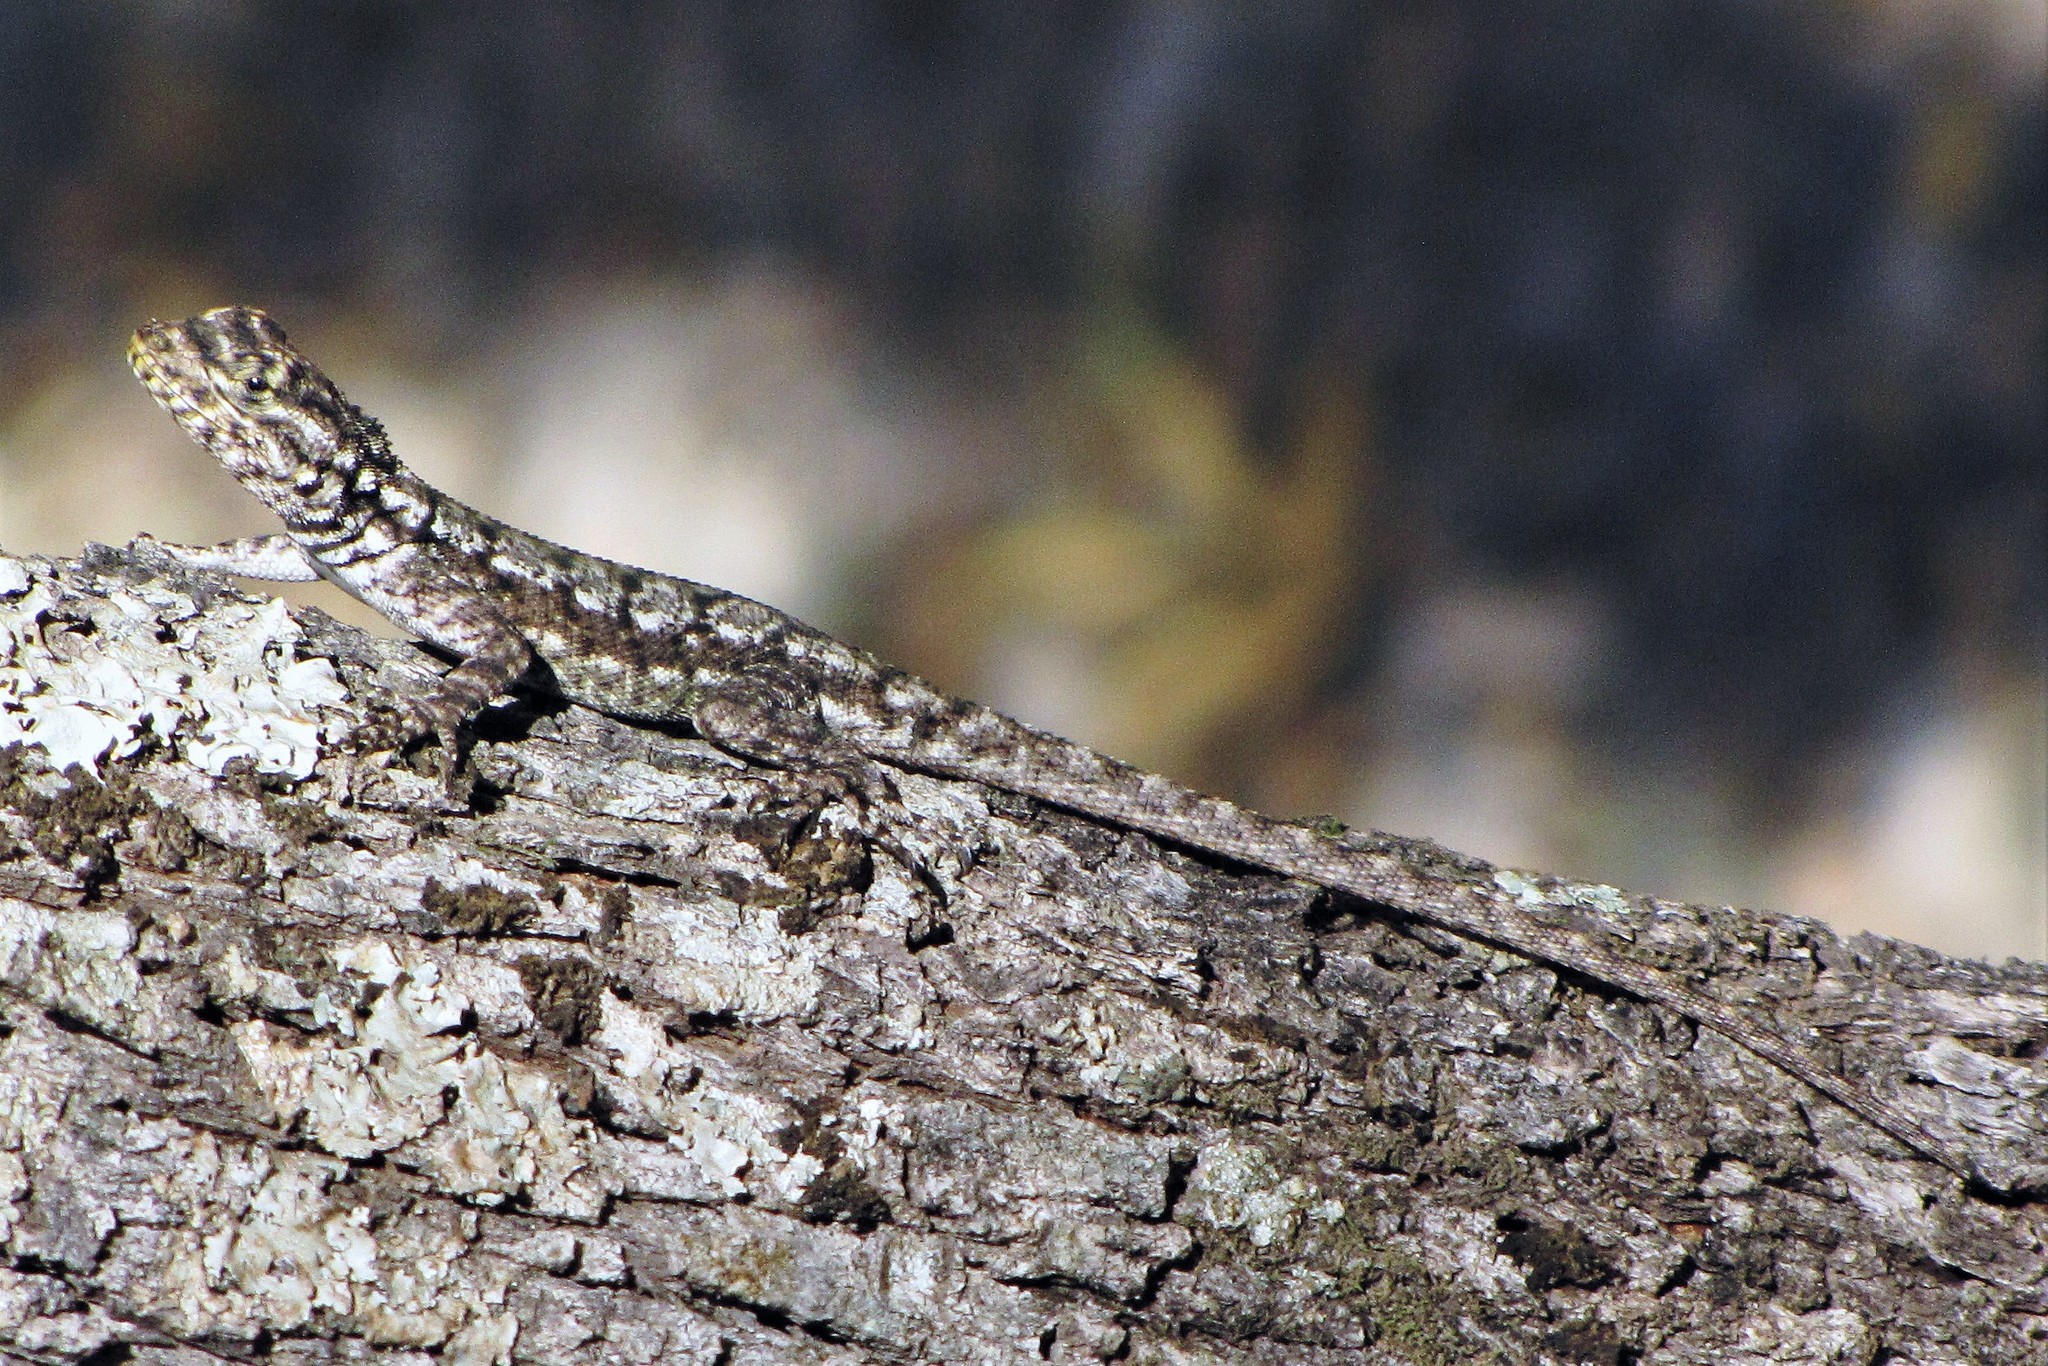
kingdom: Animalia
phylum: Chordata
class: Squamata
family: Tropiduridae
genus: Tropidurus
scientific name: Tropidurus spinulosus
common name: Spiny lava lizard
